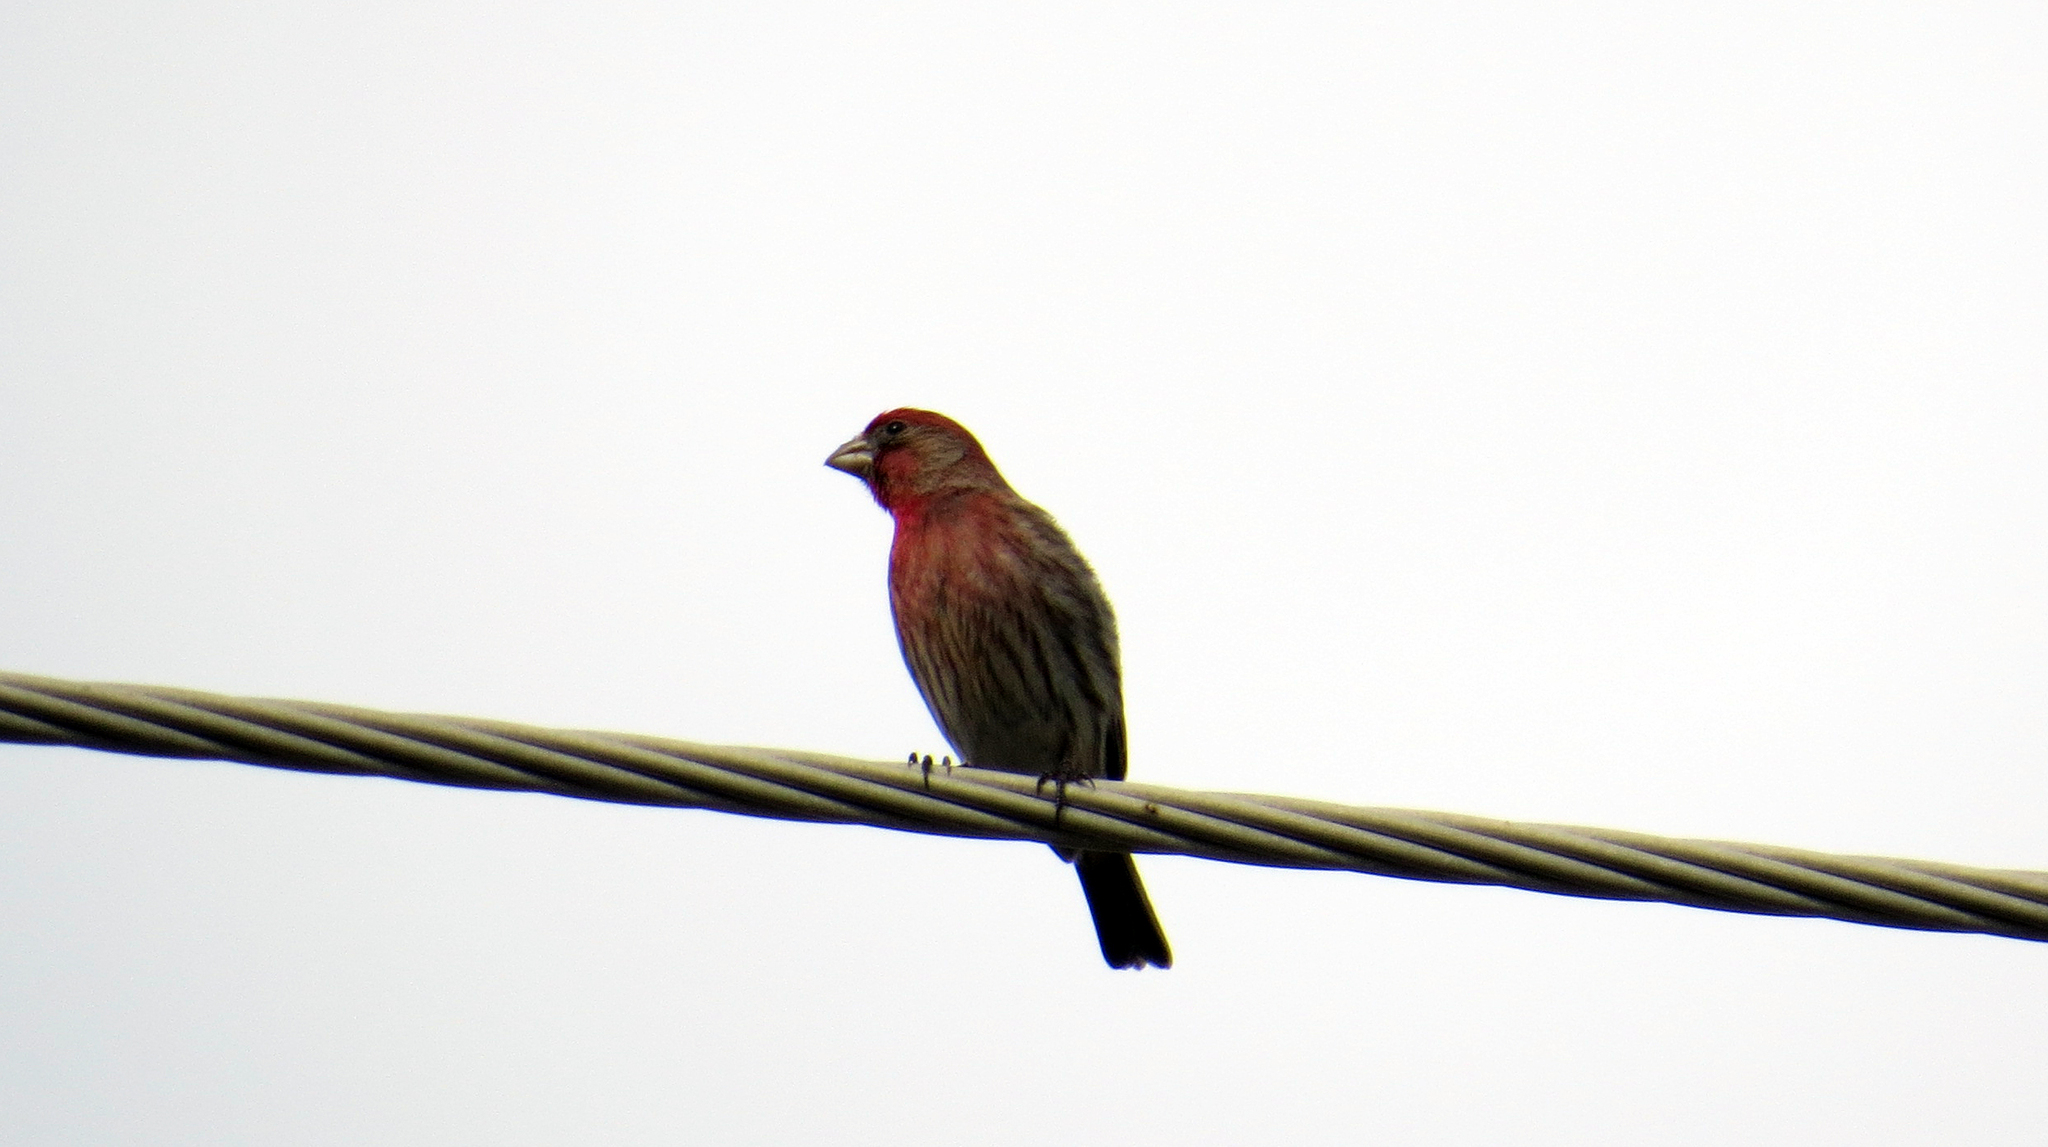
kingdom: Animalia
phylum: Chordata
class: Aves
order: Passeriformes
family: Fringillidae
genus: Haemorhous
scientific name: Haemorhous mexicanus
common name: House finch
